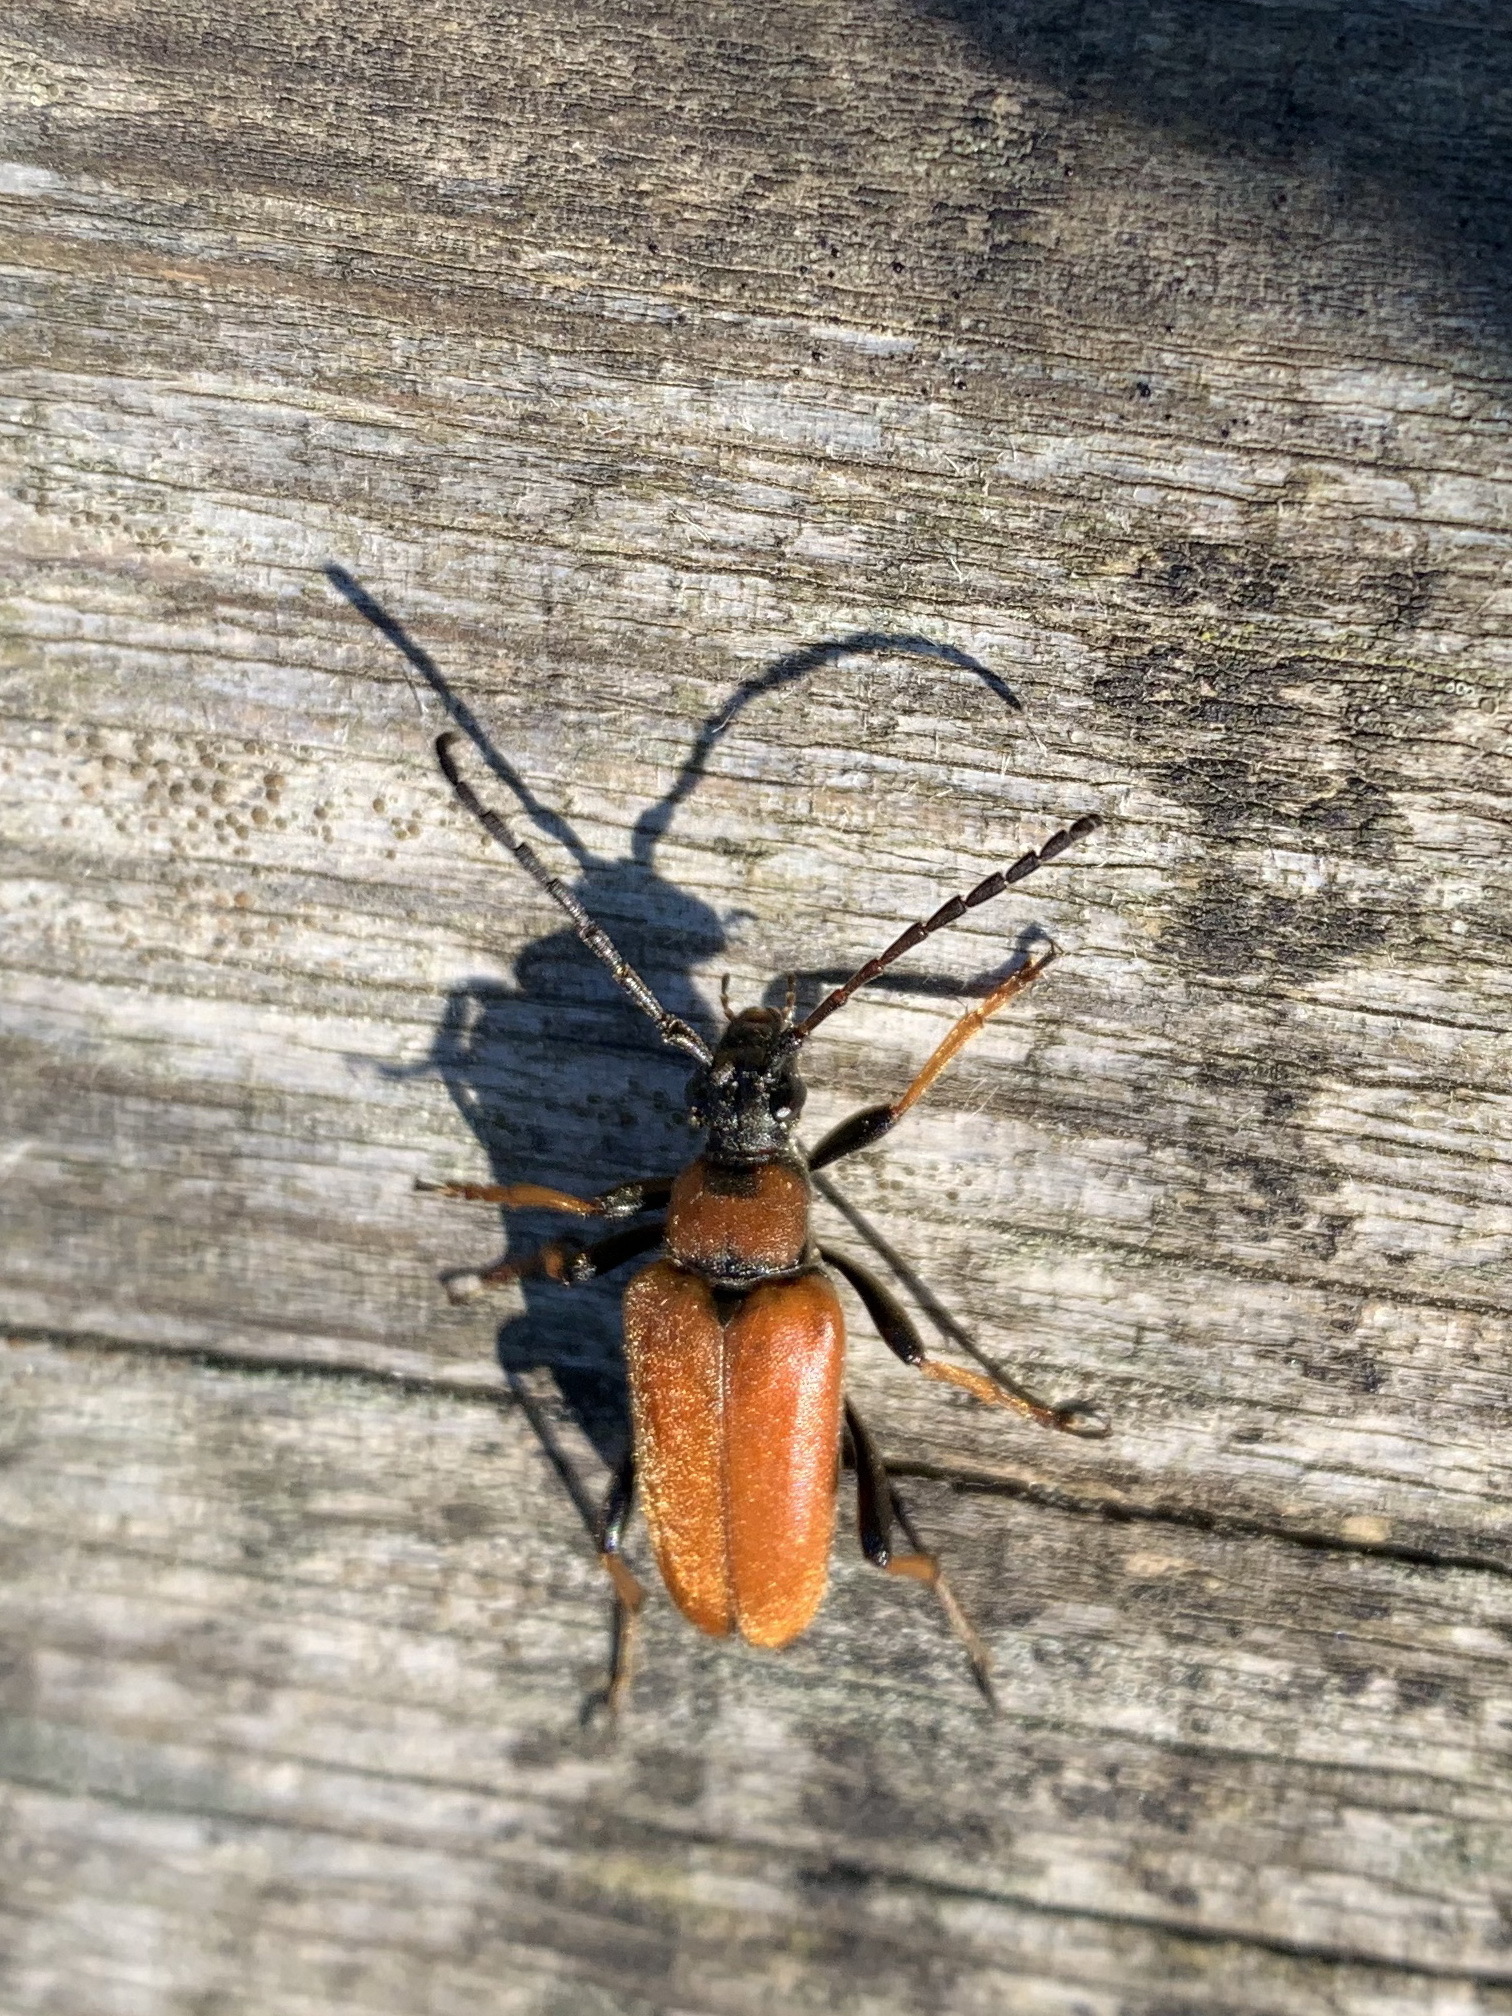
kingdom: Animalia
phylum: Arthropoda
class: Insecta
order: Coleoptera
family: Cerambycidae
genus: Stictoleptura
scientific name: Stictoleptura rubra
